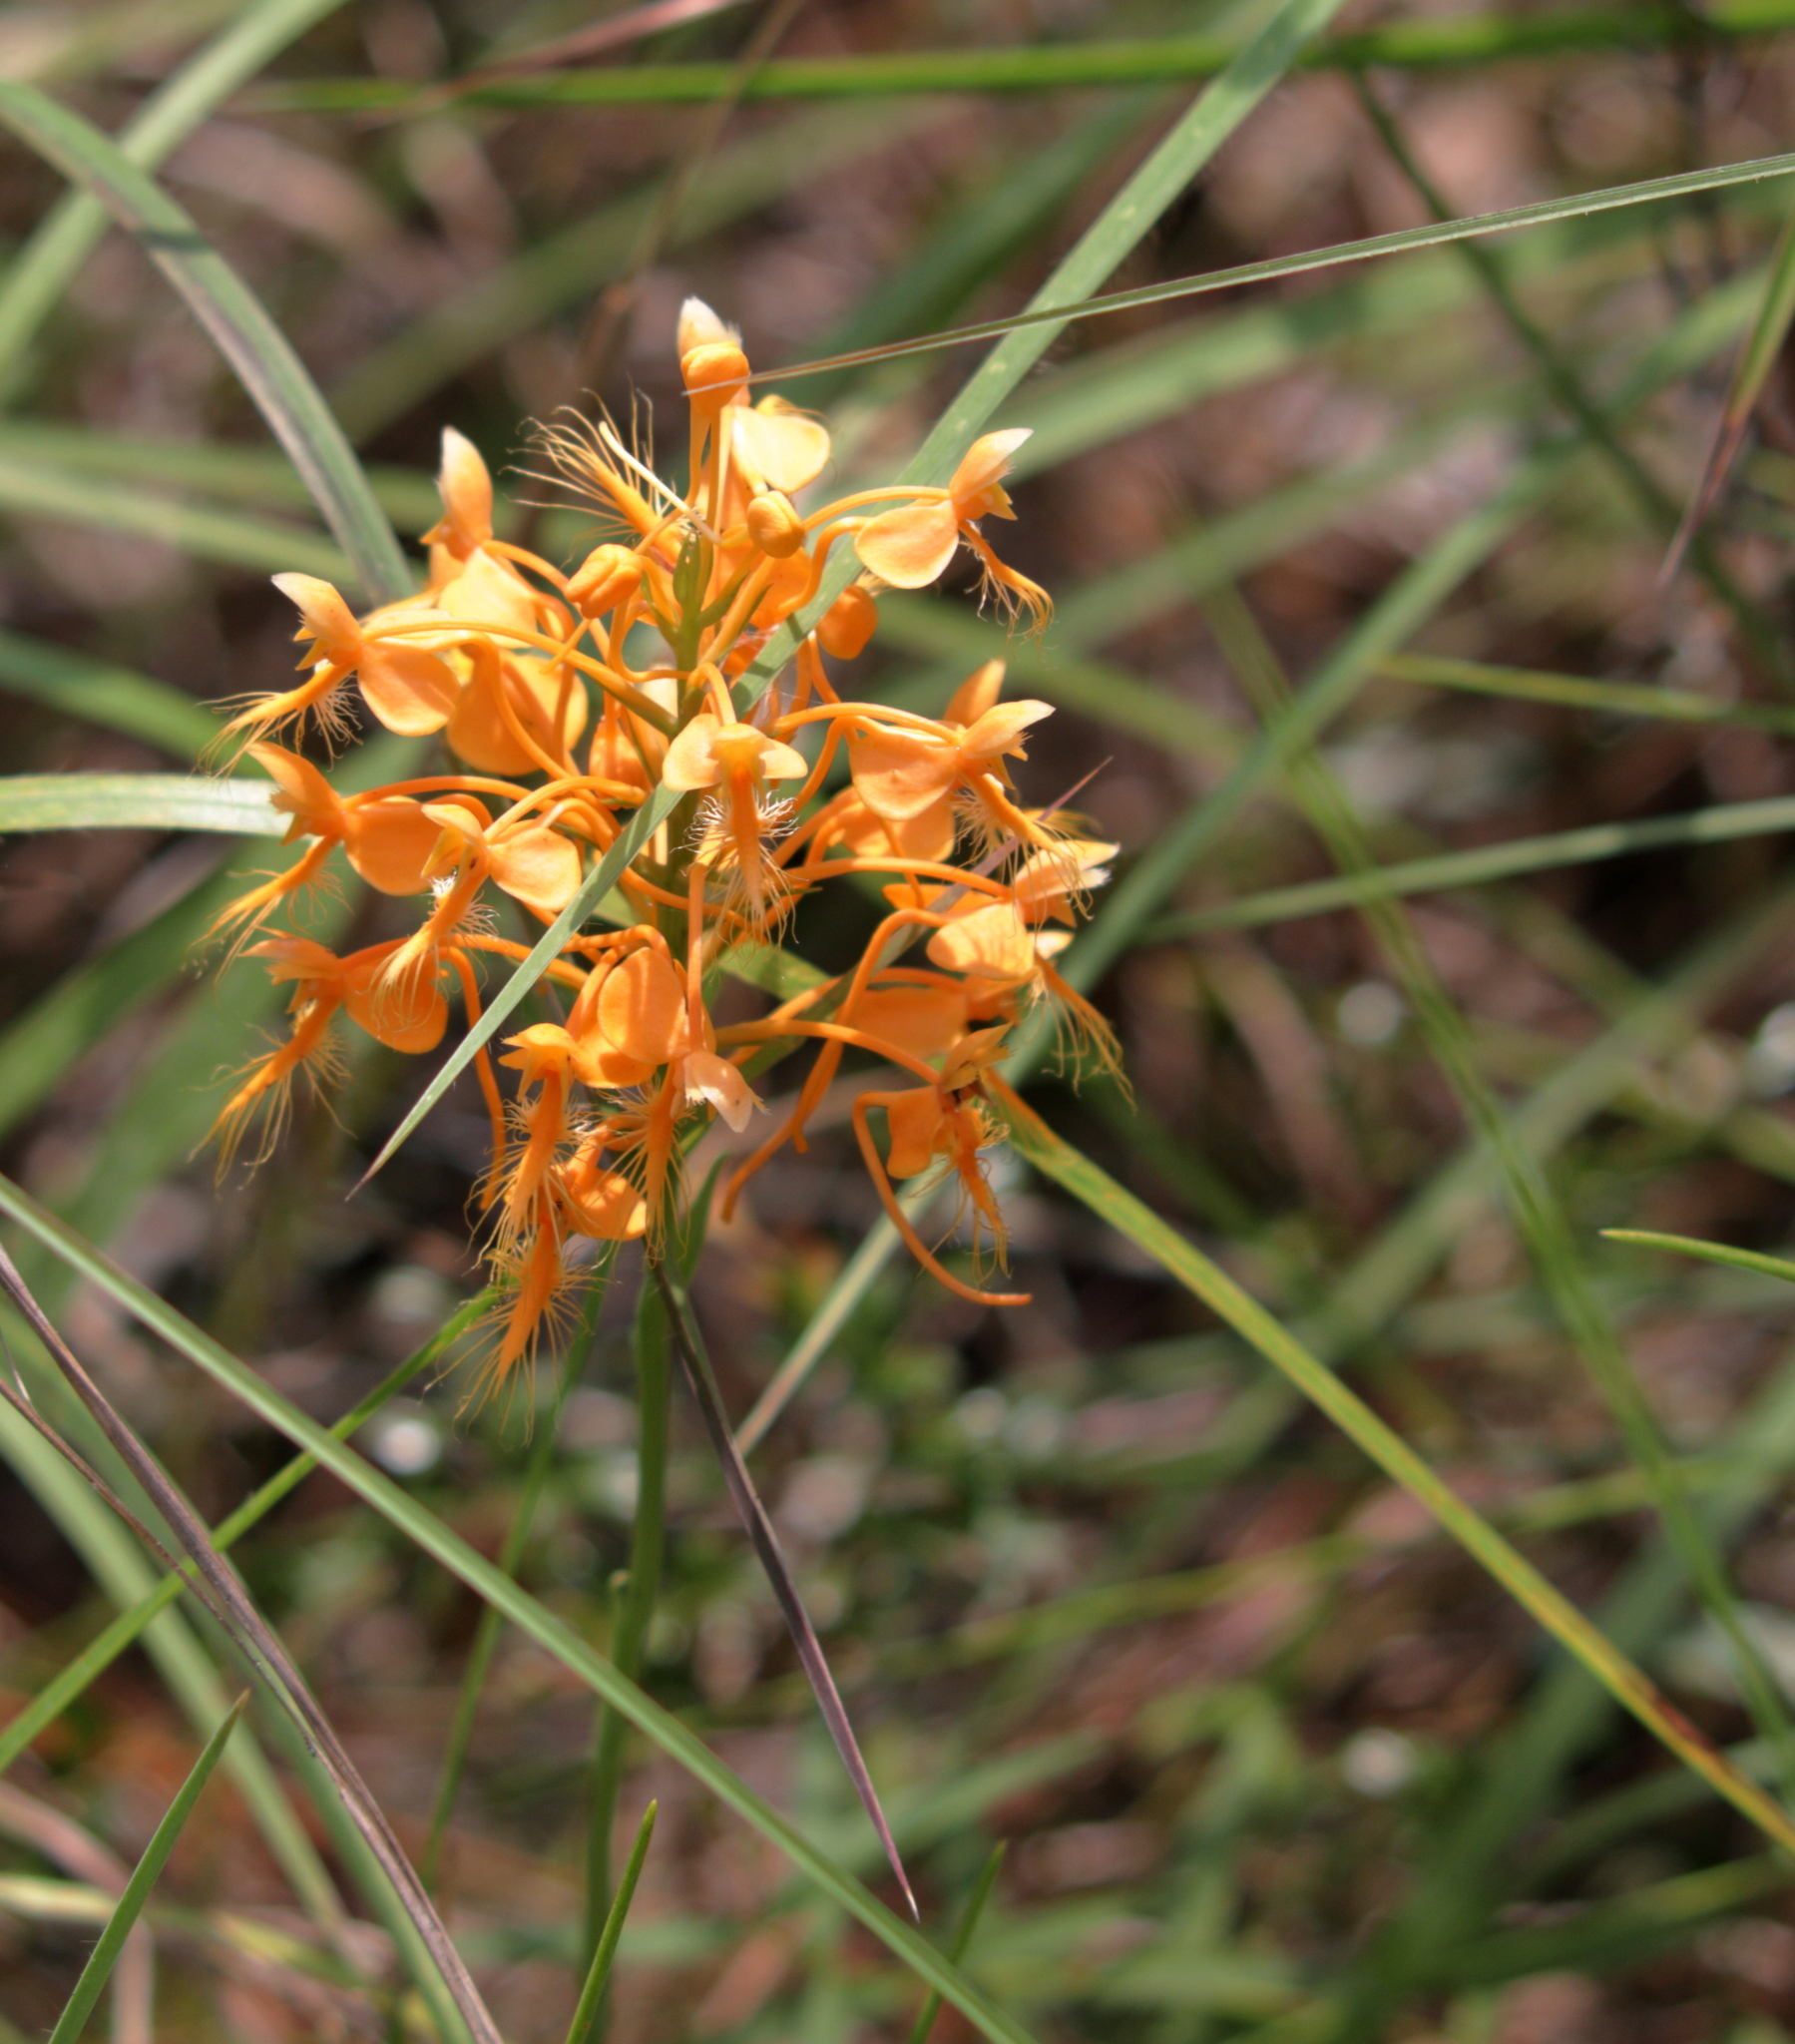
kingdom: Plantae
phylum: Tracheophyta
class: Liliopsida
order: Asparagales
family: Orchidaceae
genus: Platanthera
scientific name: Platanthera ciliaris
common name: Yellow fringed orchid
